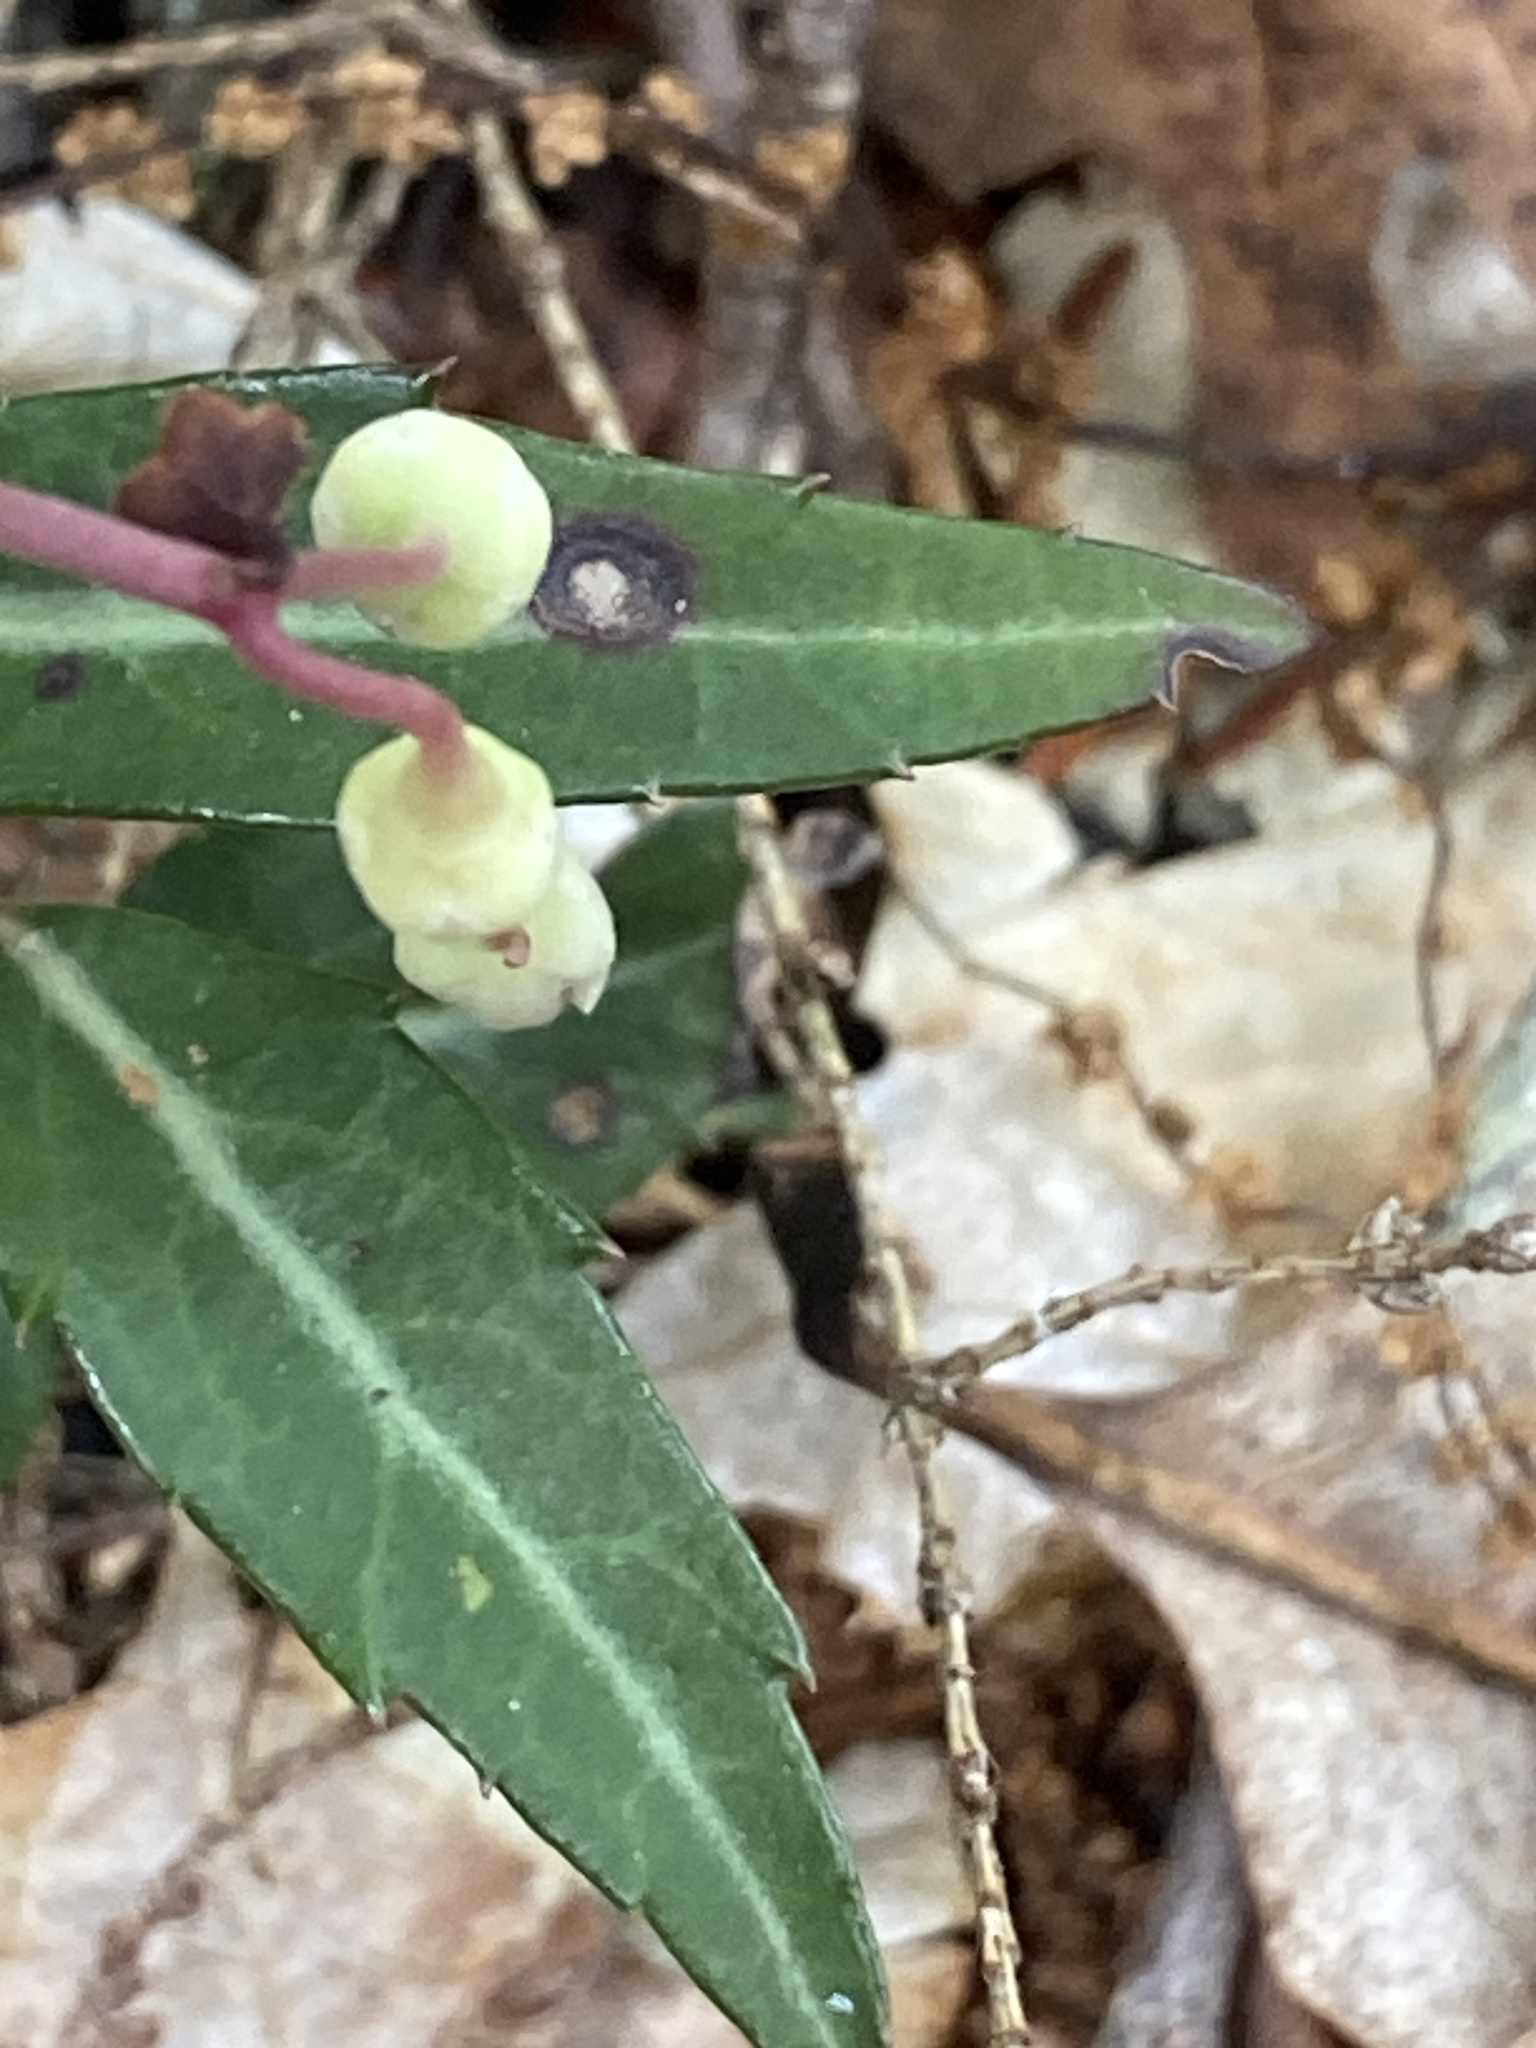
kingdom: Plantae
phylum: Tracheophyta
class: Magnoliopsida
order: Ericales
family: Ericaceae
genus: Chimaphila
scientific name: Chimaphila maculata
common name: Spotted pipsissewa
